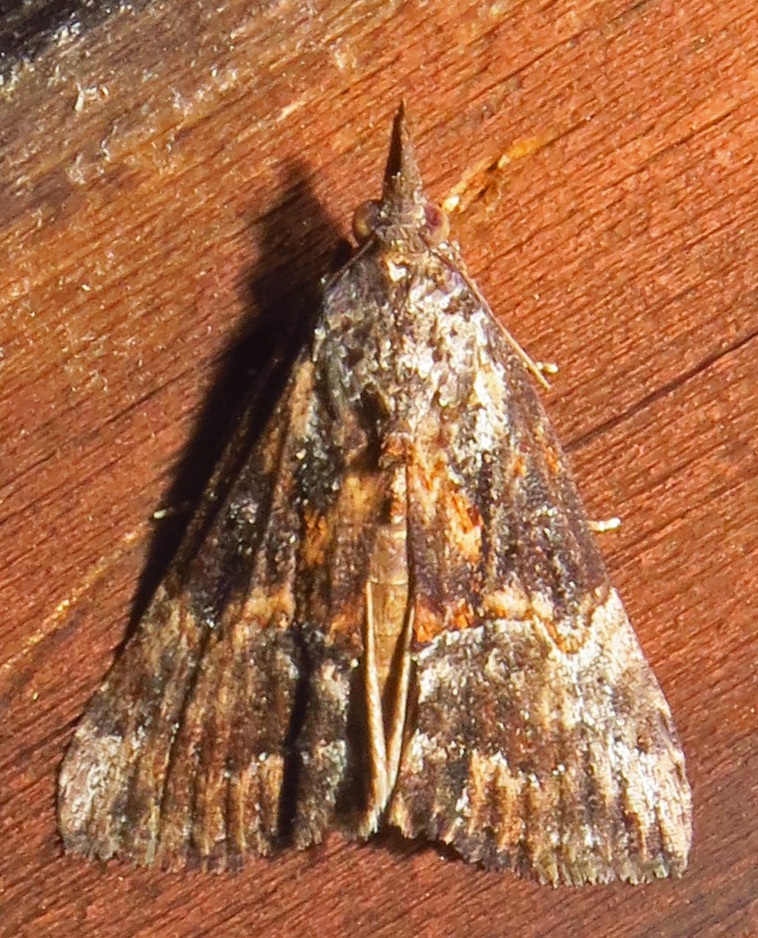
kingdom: Animalia
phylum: Arthropoda
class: Insecta
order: Lepidoptera
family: Erebidae
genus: Hypena
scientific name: Hypena scabra
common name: Green cloverworm
